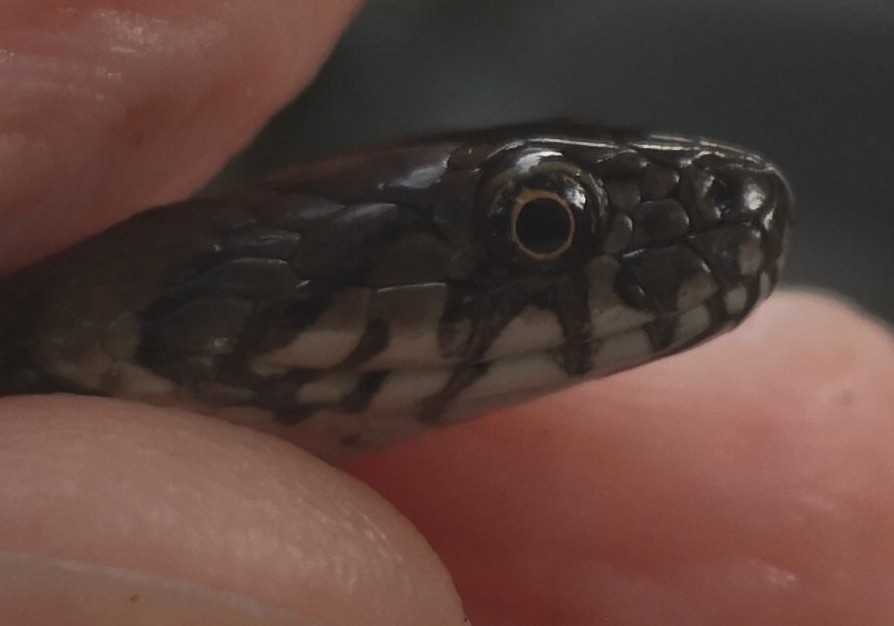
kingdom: Animalia
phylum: Chordata
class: Squamata
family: Colubridae
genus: Natrix
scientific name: Natrix maura
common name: Viperine water snake
